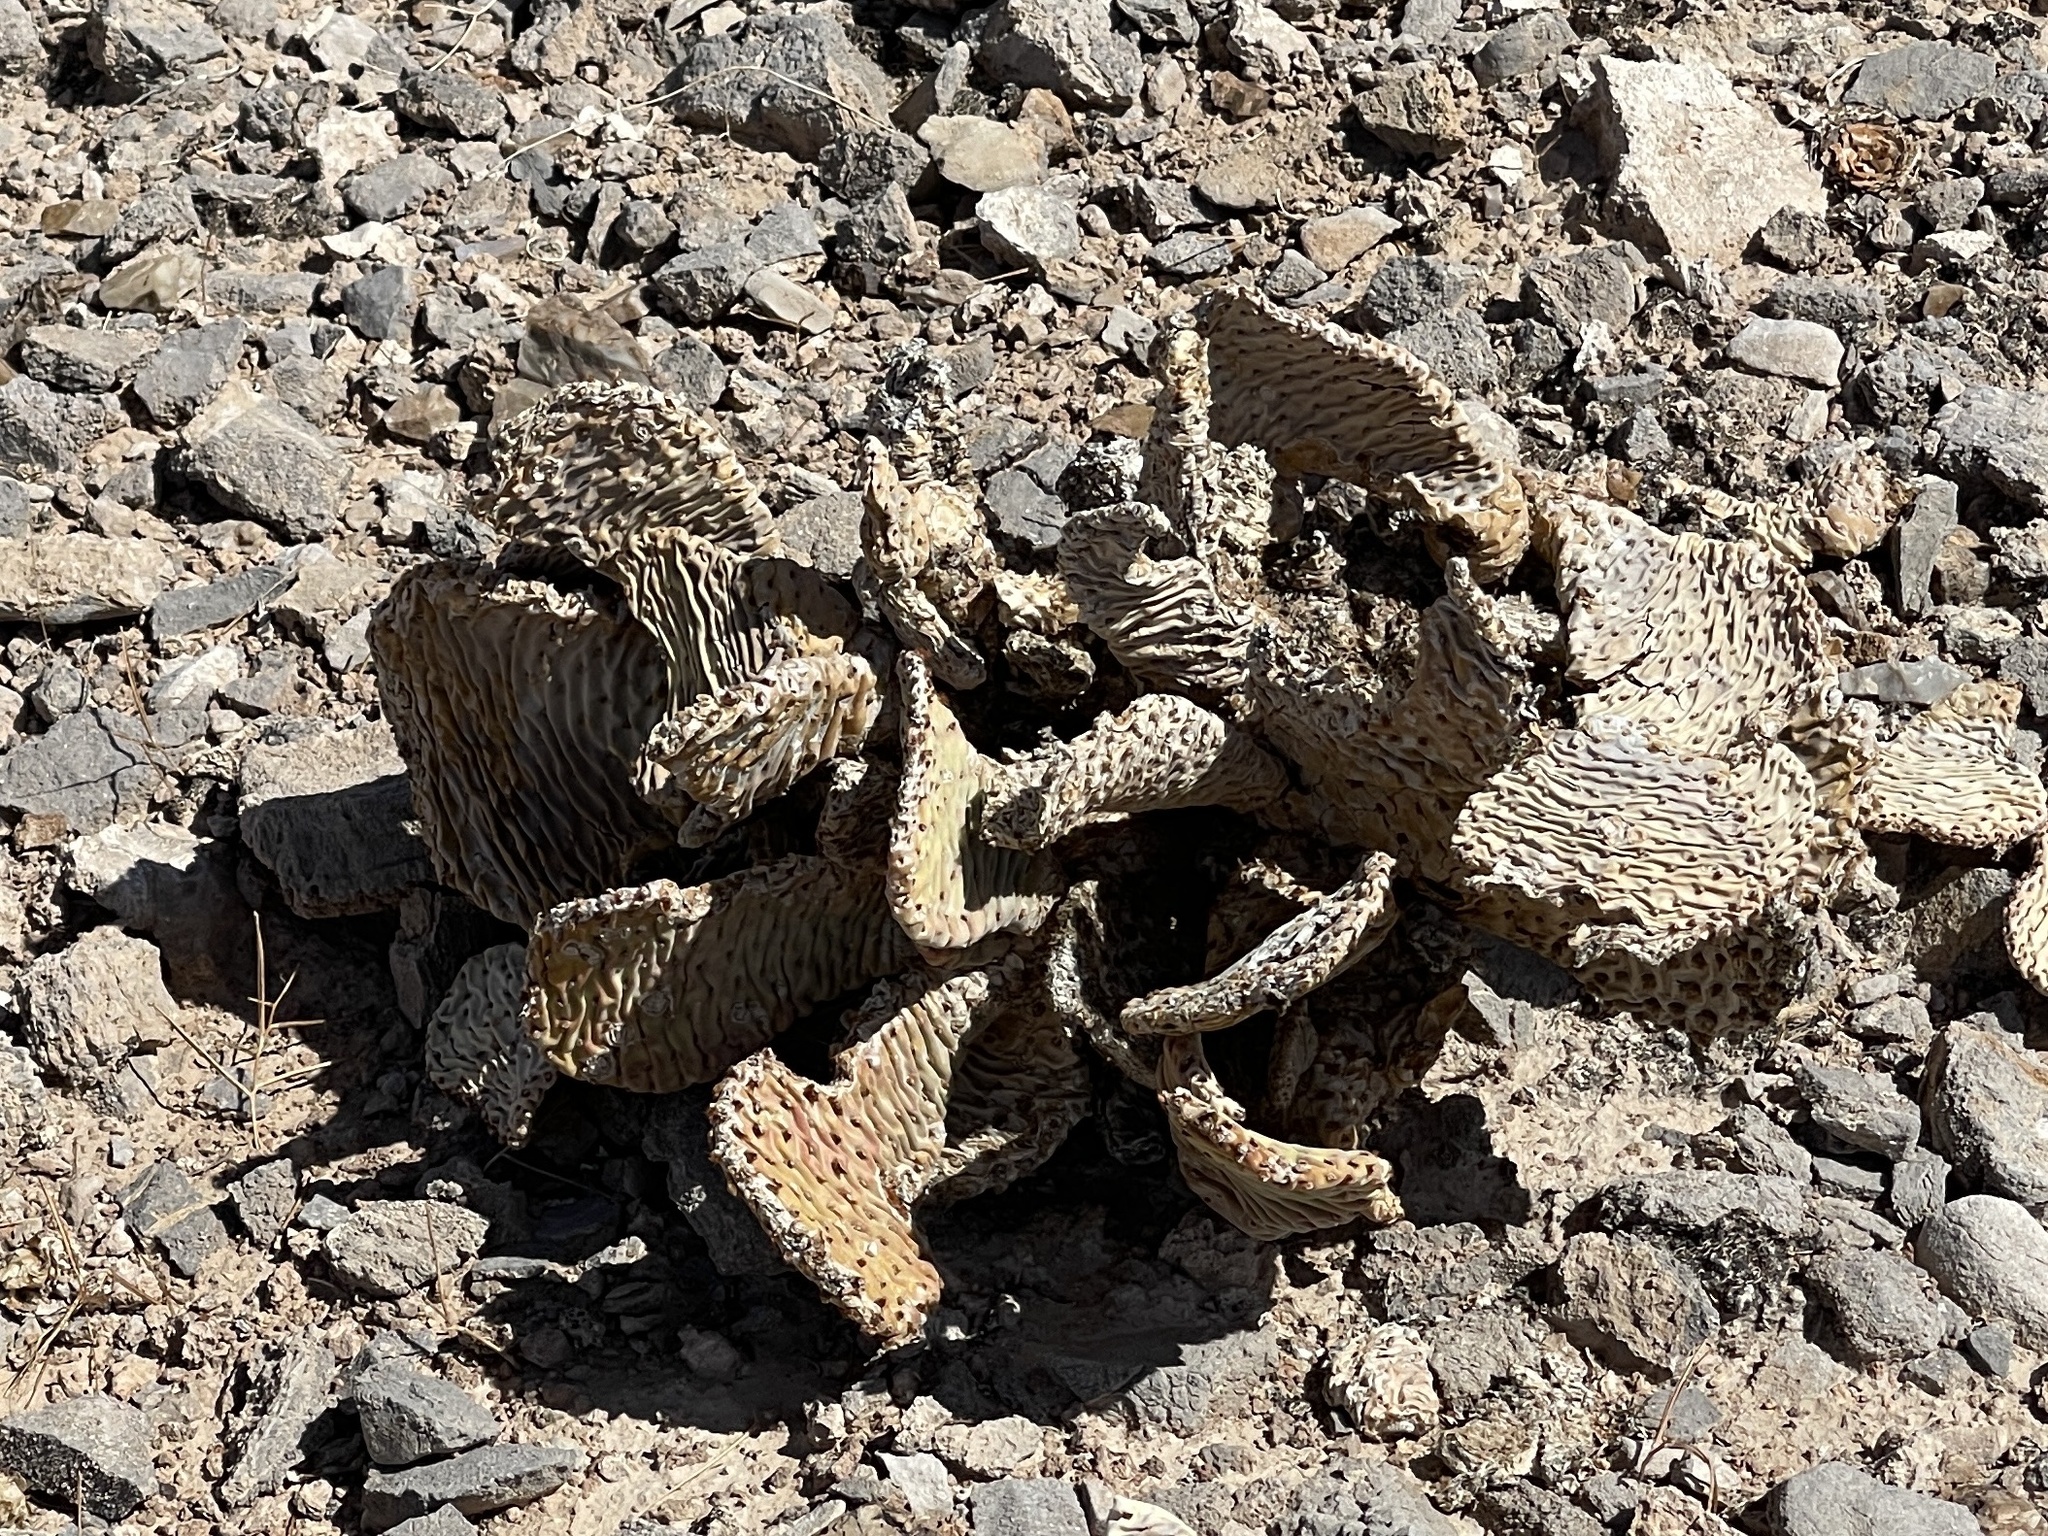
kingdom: Plantae
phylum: Tracheophyta
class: Magnoliopsida
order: Caryophyllales
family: Cactaceae
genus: Opuntia
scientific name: Opuntia basilaris
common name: Beavertail prickly-pear
